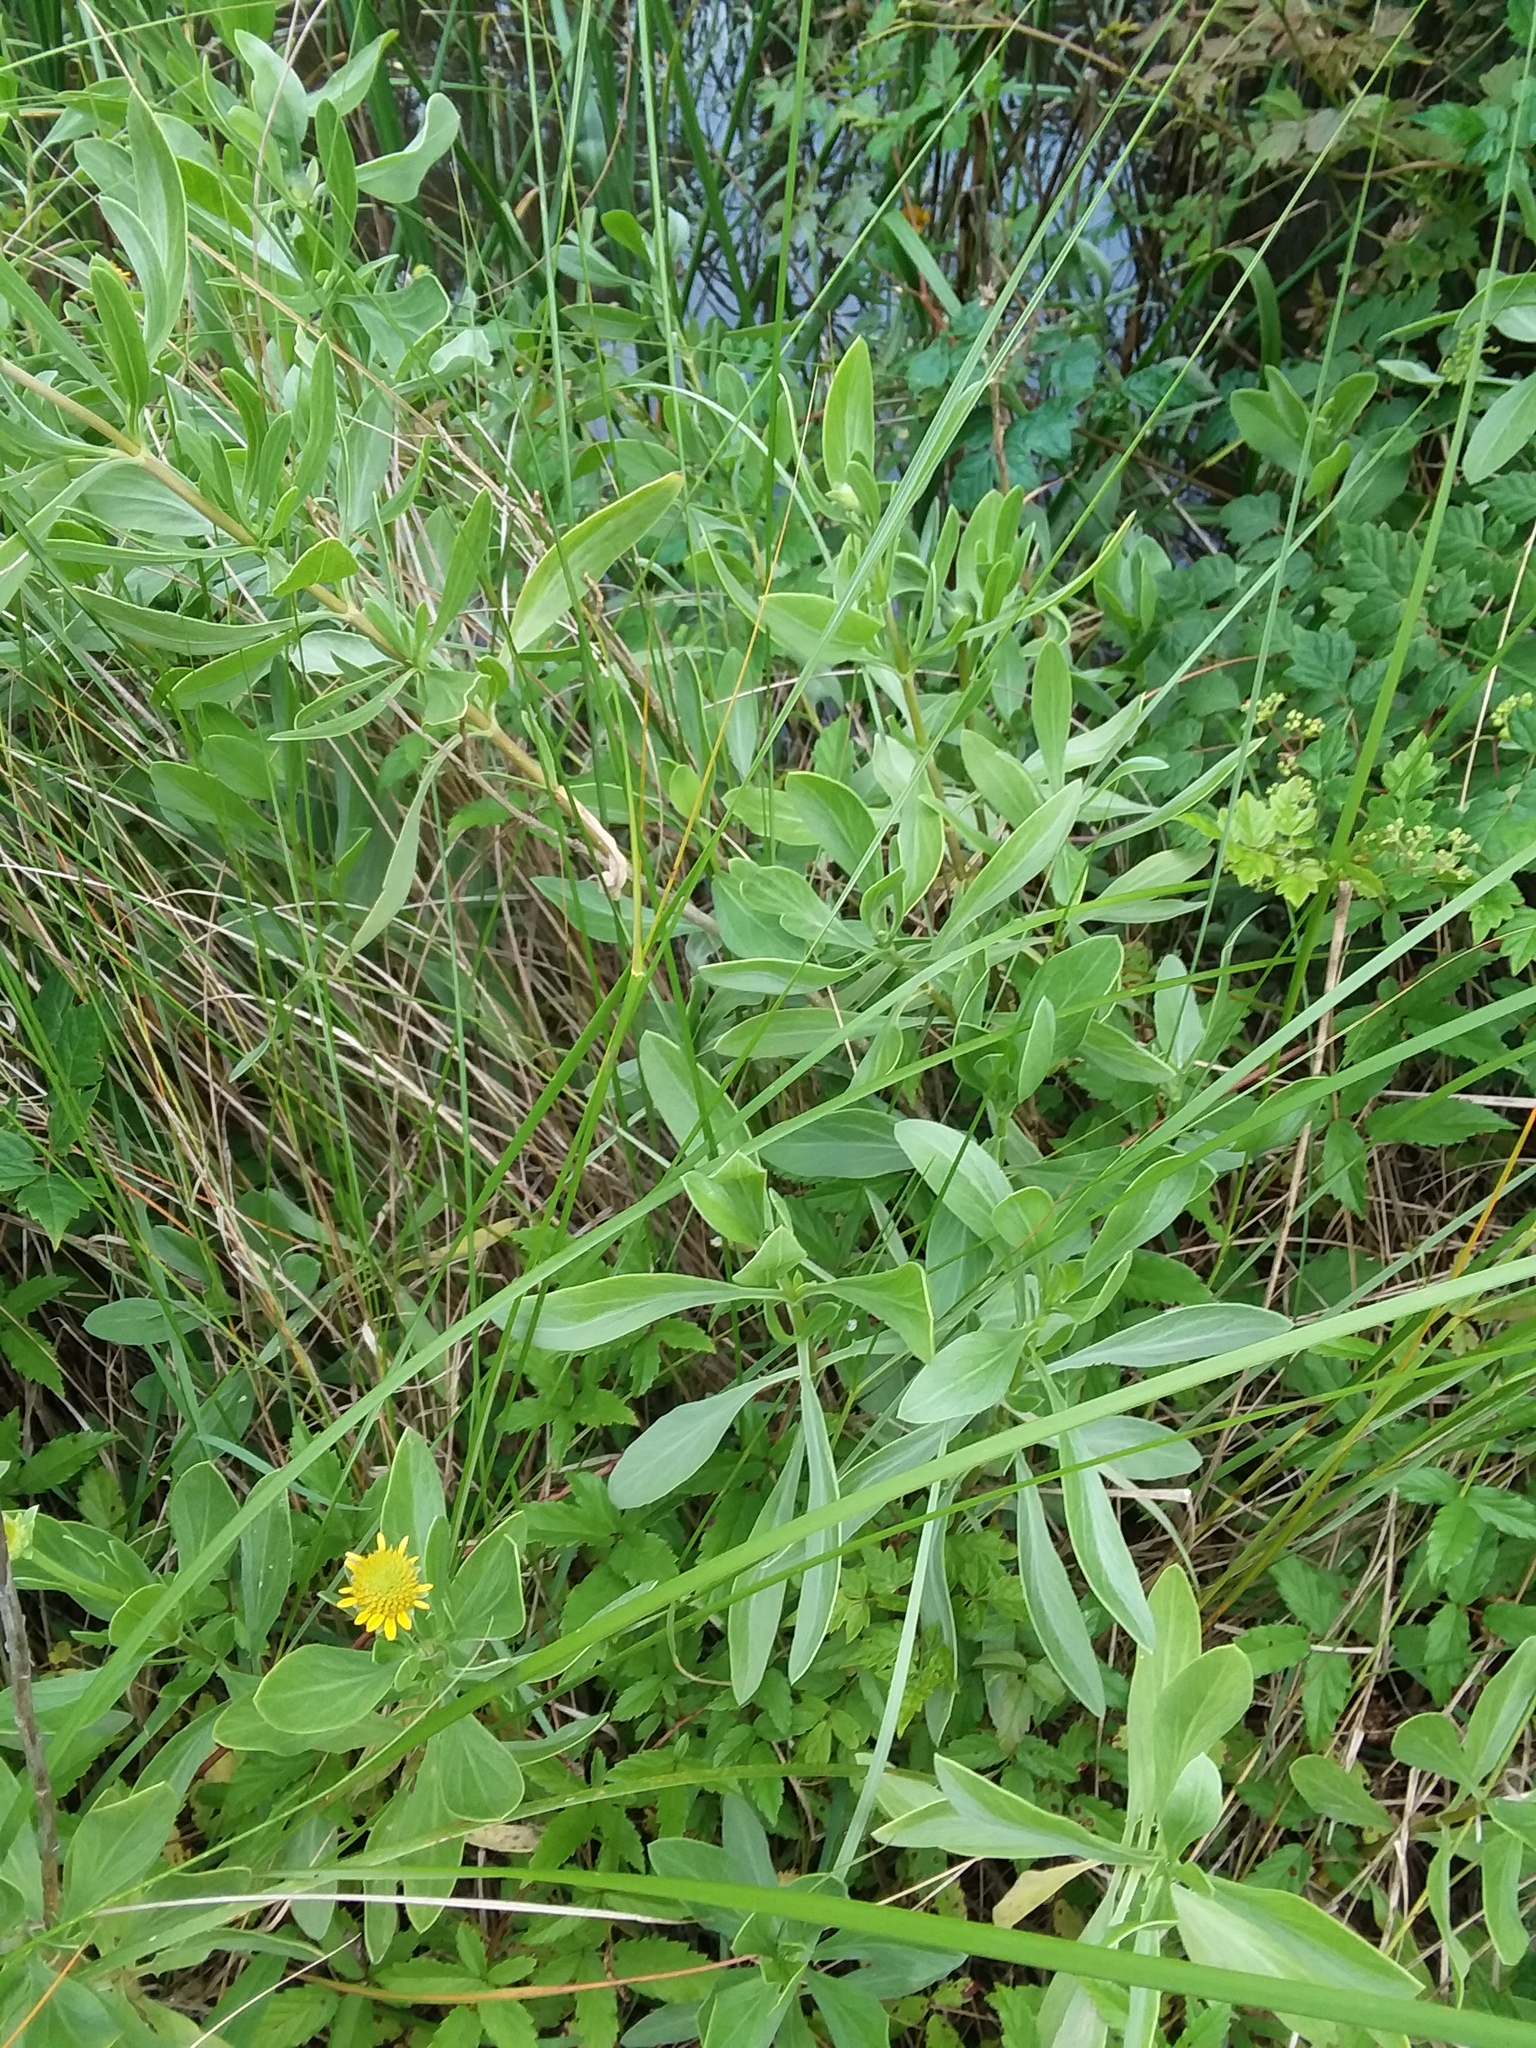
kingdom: Plantae
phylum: Tracheophyta
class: Magnoliopsida
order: Asterales
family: Asteraceae
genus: Borrichia
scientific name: Borrichia frutescens
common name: Sea oxeye
